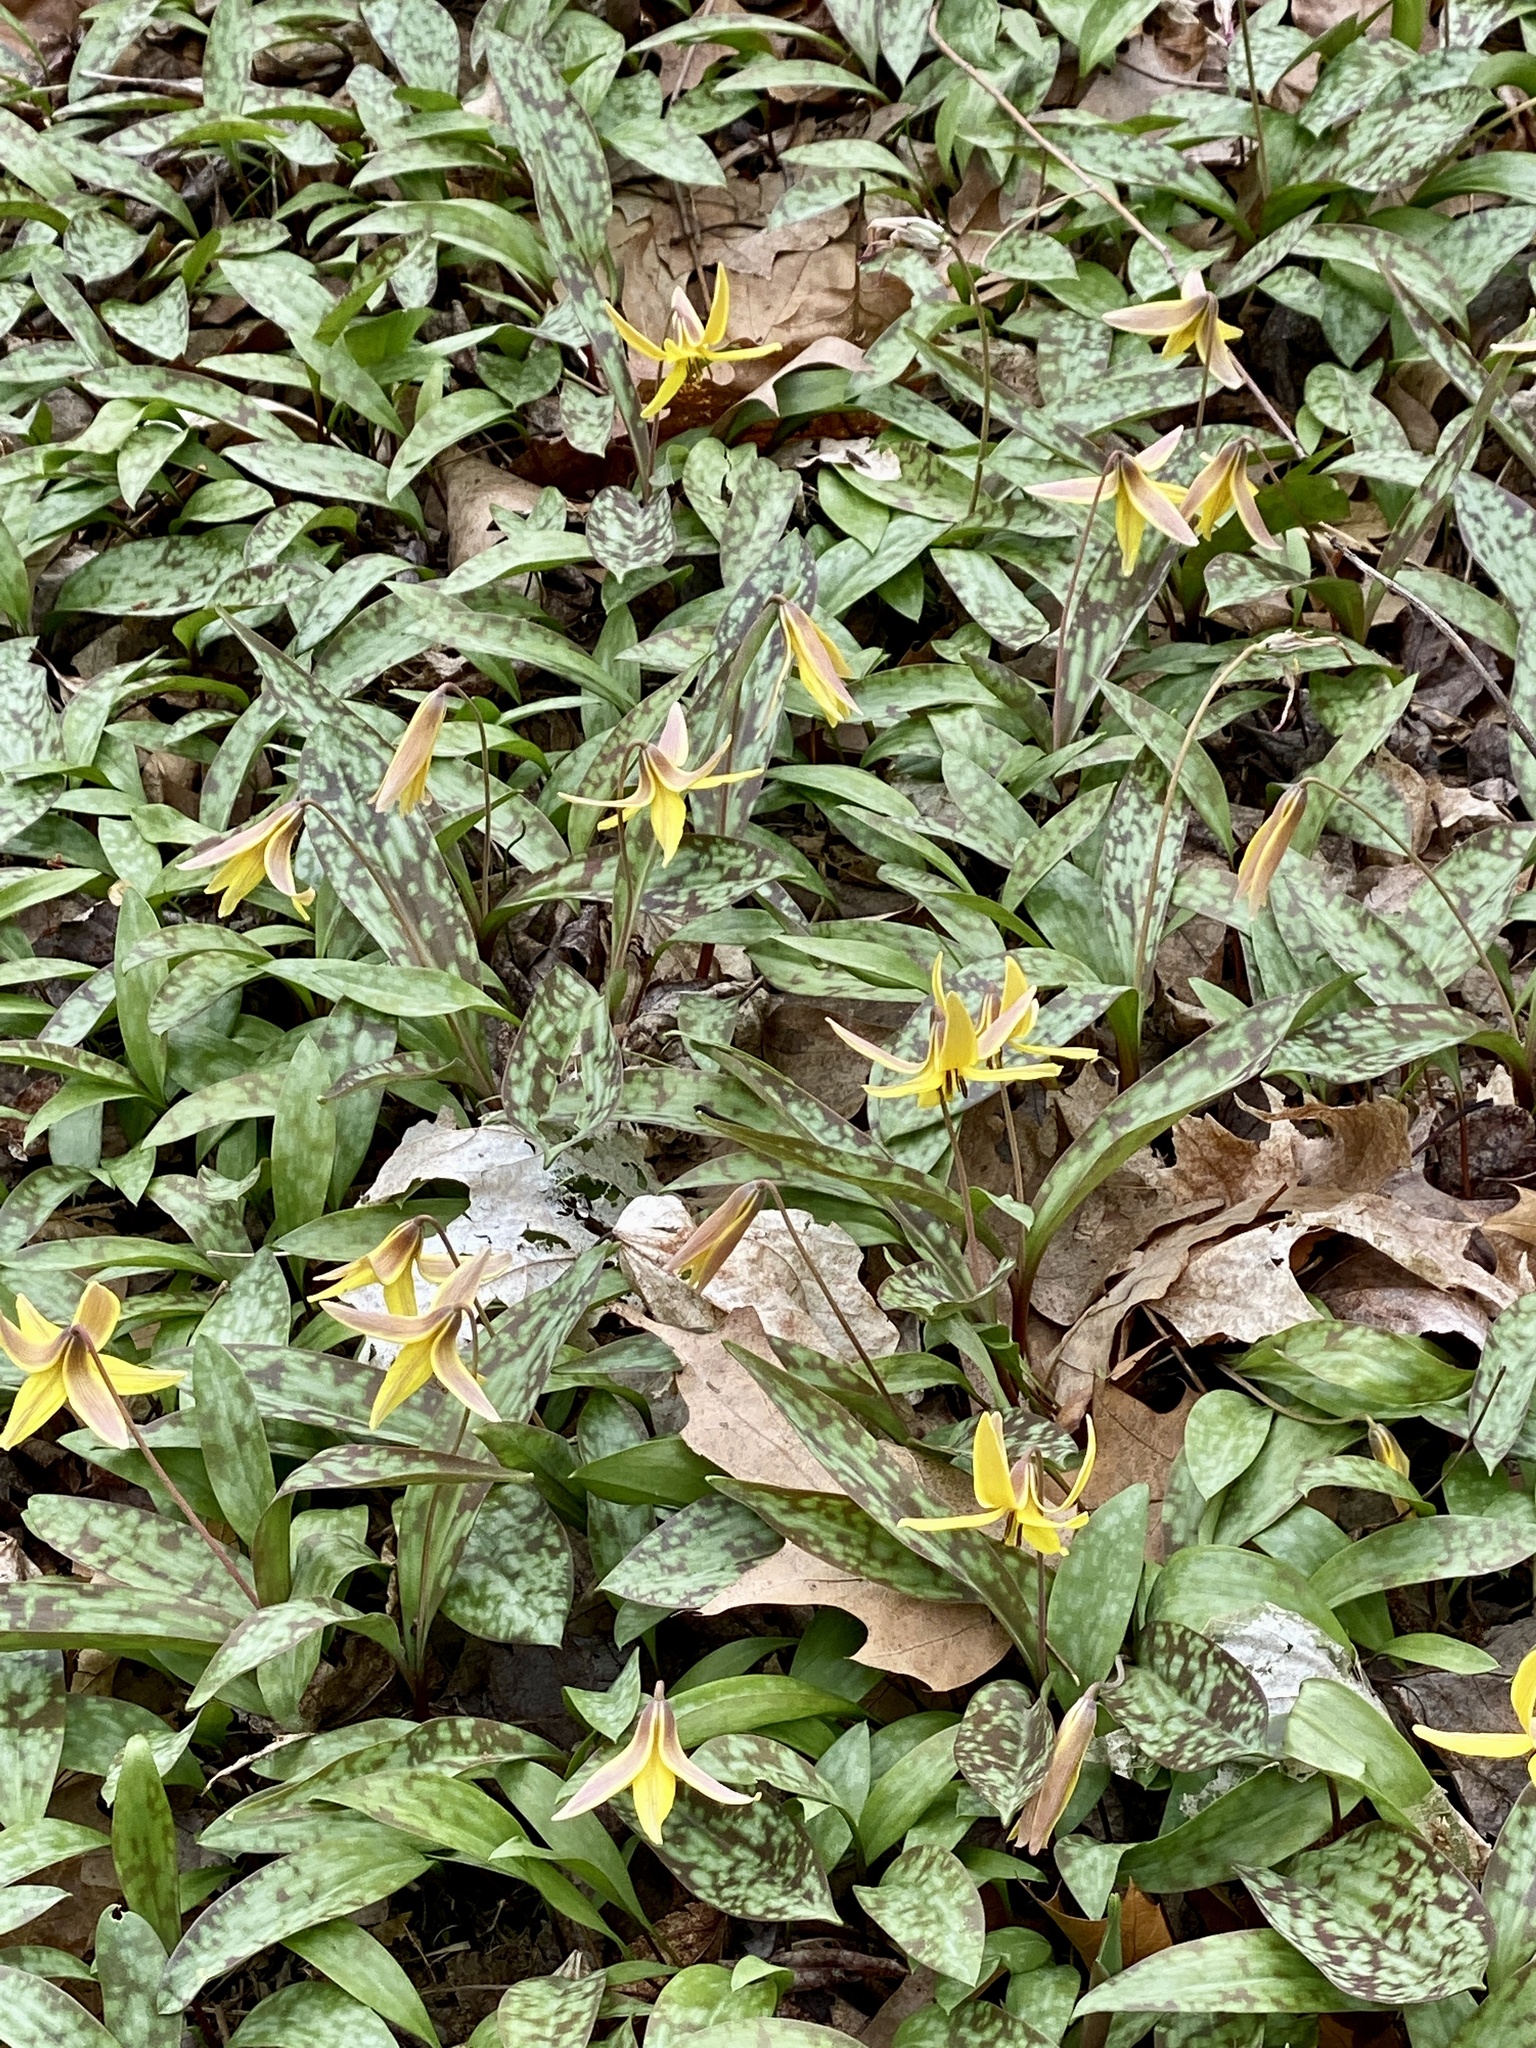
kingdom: Plantae
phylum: Tracheophyta
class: Liliopsida
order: Liliales
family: Liliaceae
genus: Erythronium
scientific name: Erythronium americanum
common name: Yellow adder's-tongue
